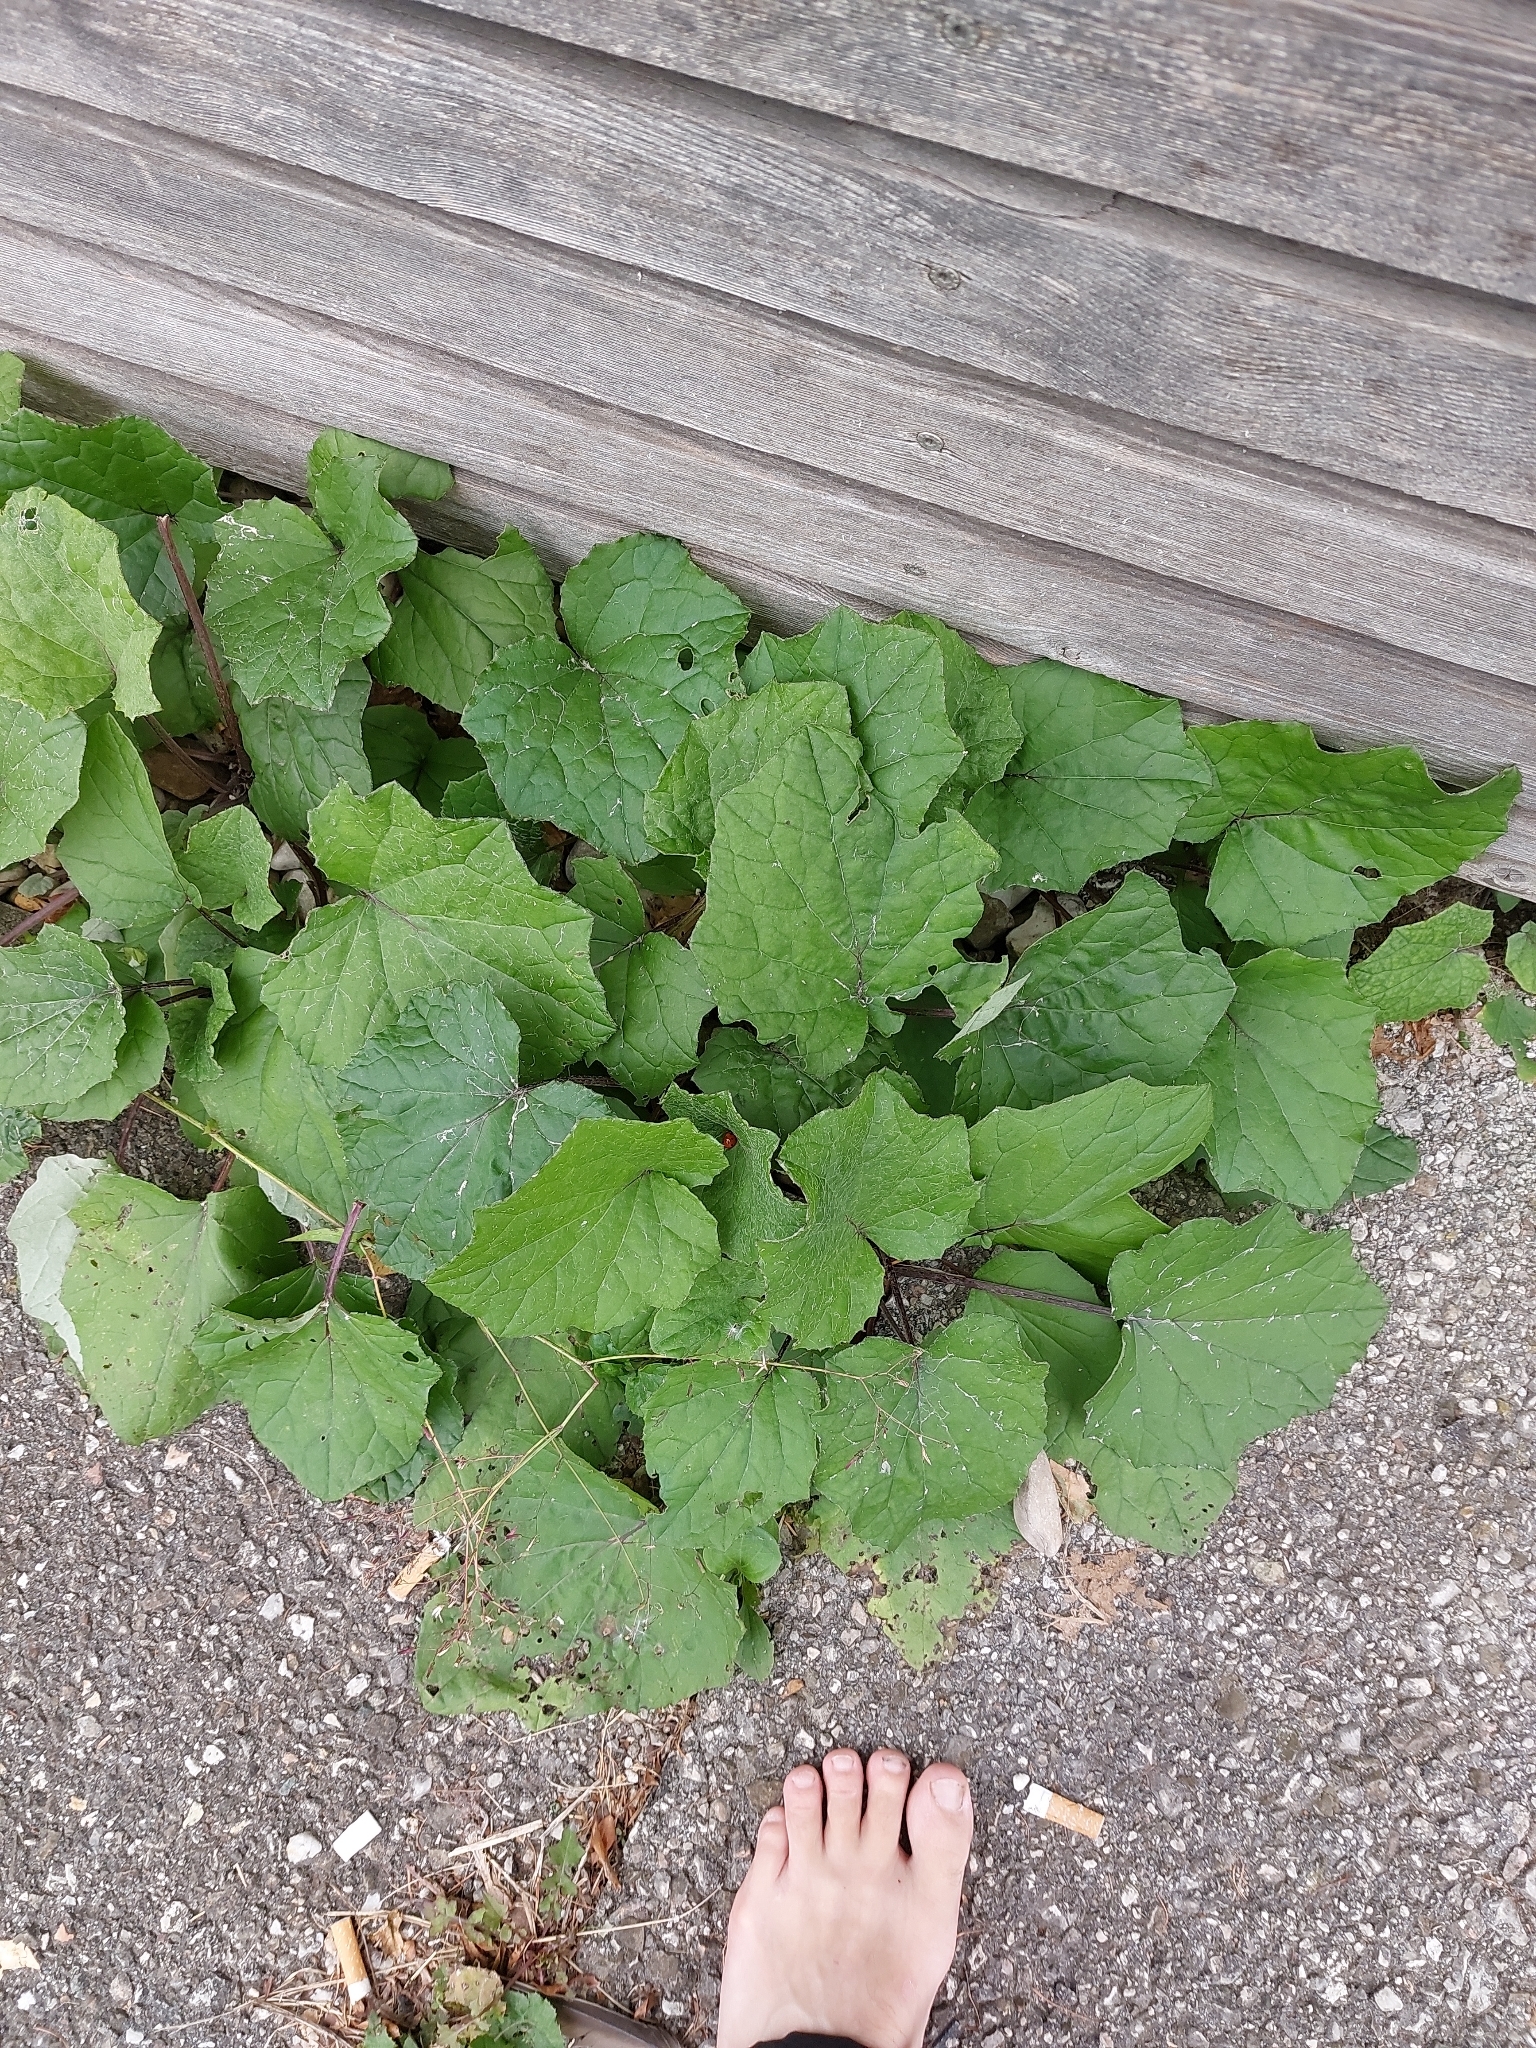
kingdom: Plantae
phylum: Tracheophyta
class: Magnoliopsida
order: Asterales
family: Asteraceae
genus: Tussilago
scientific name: Tussilago farfara
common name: Coltsfoot
